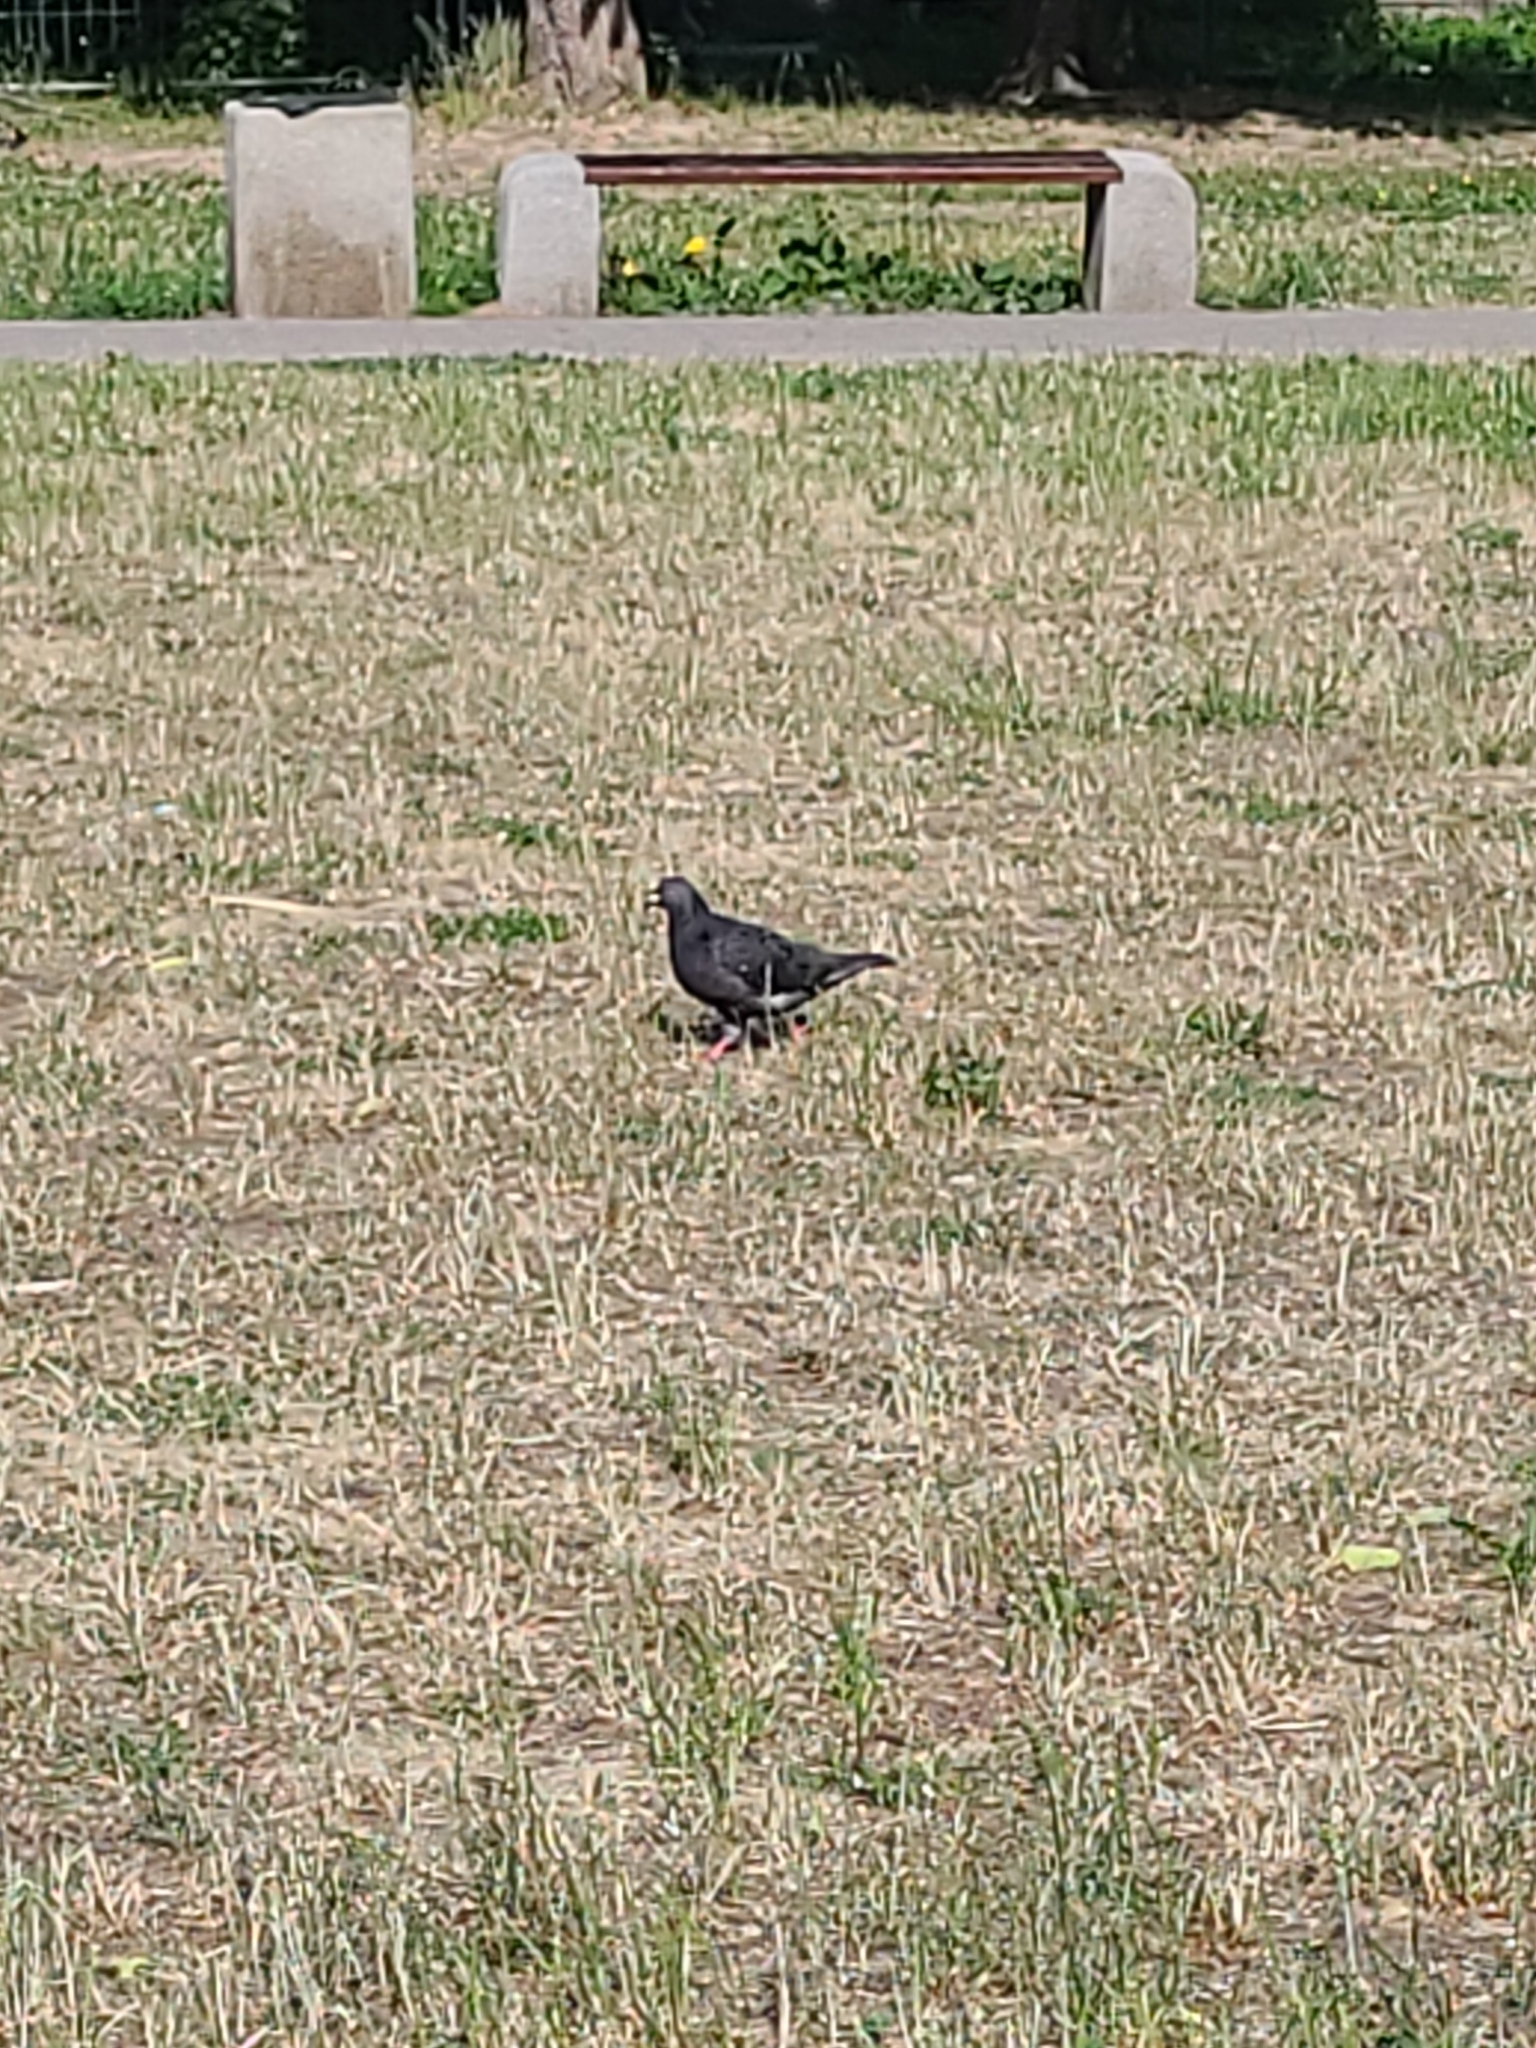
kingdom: Animalia
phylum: Chordata
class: Aves
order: Columbiformes
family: Columbidae
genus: Columba
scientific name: Columba livia
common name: Rock pigeon
